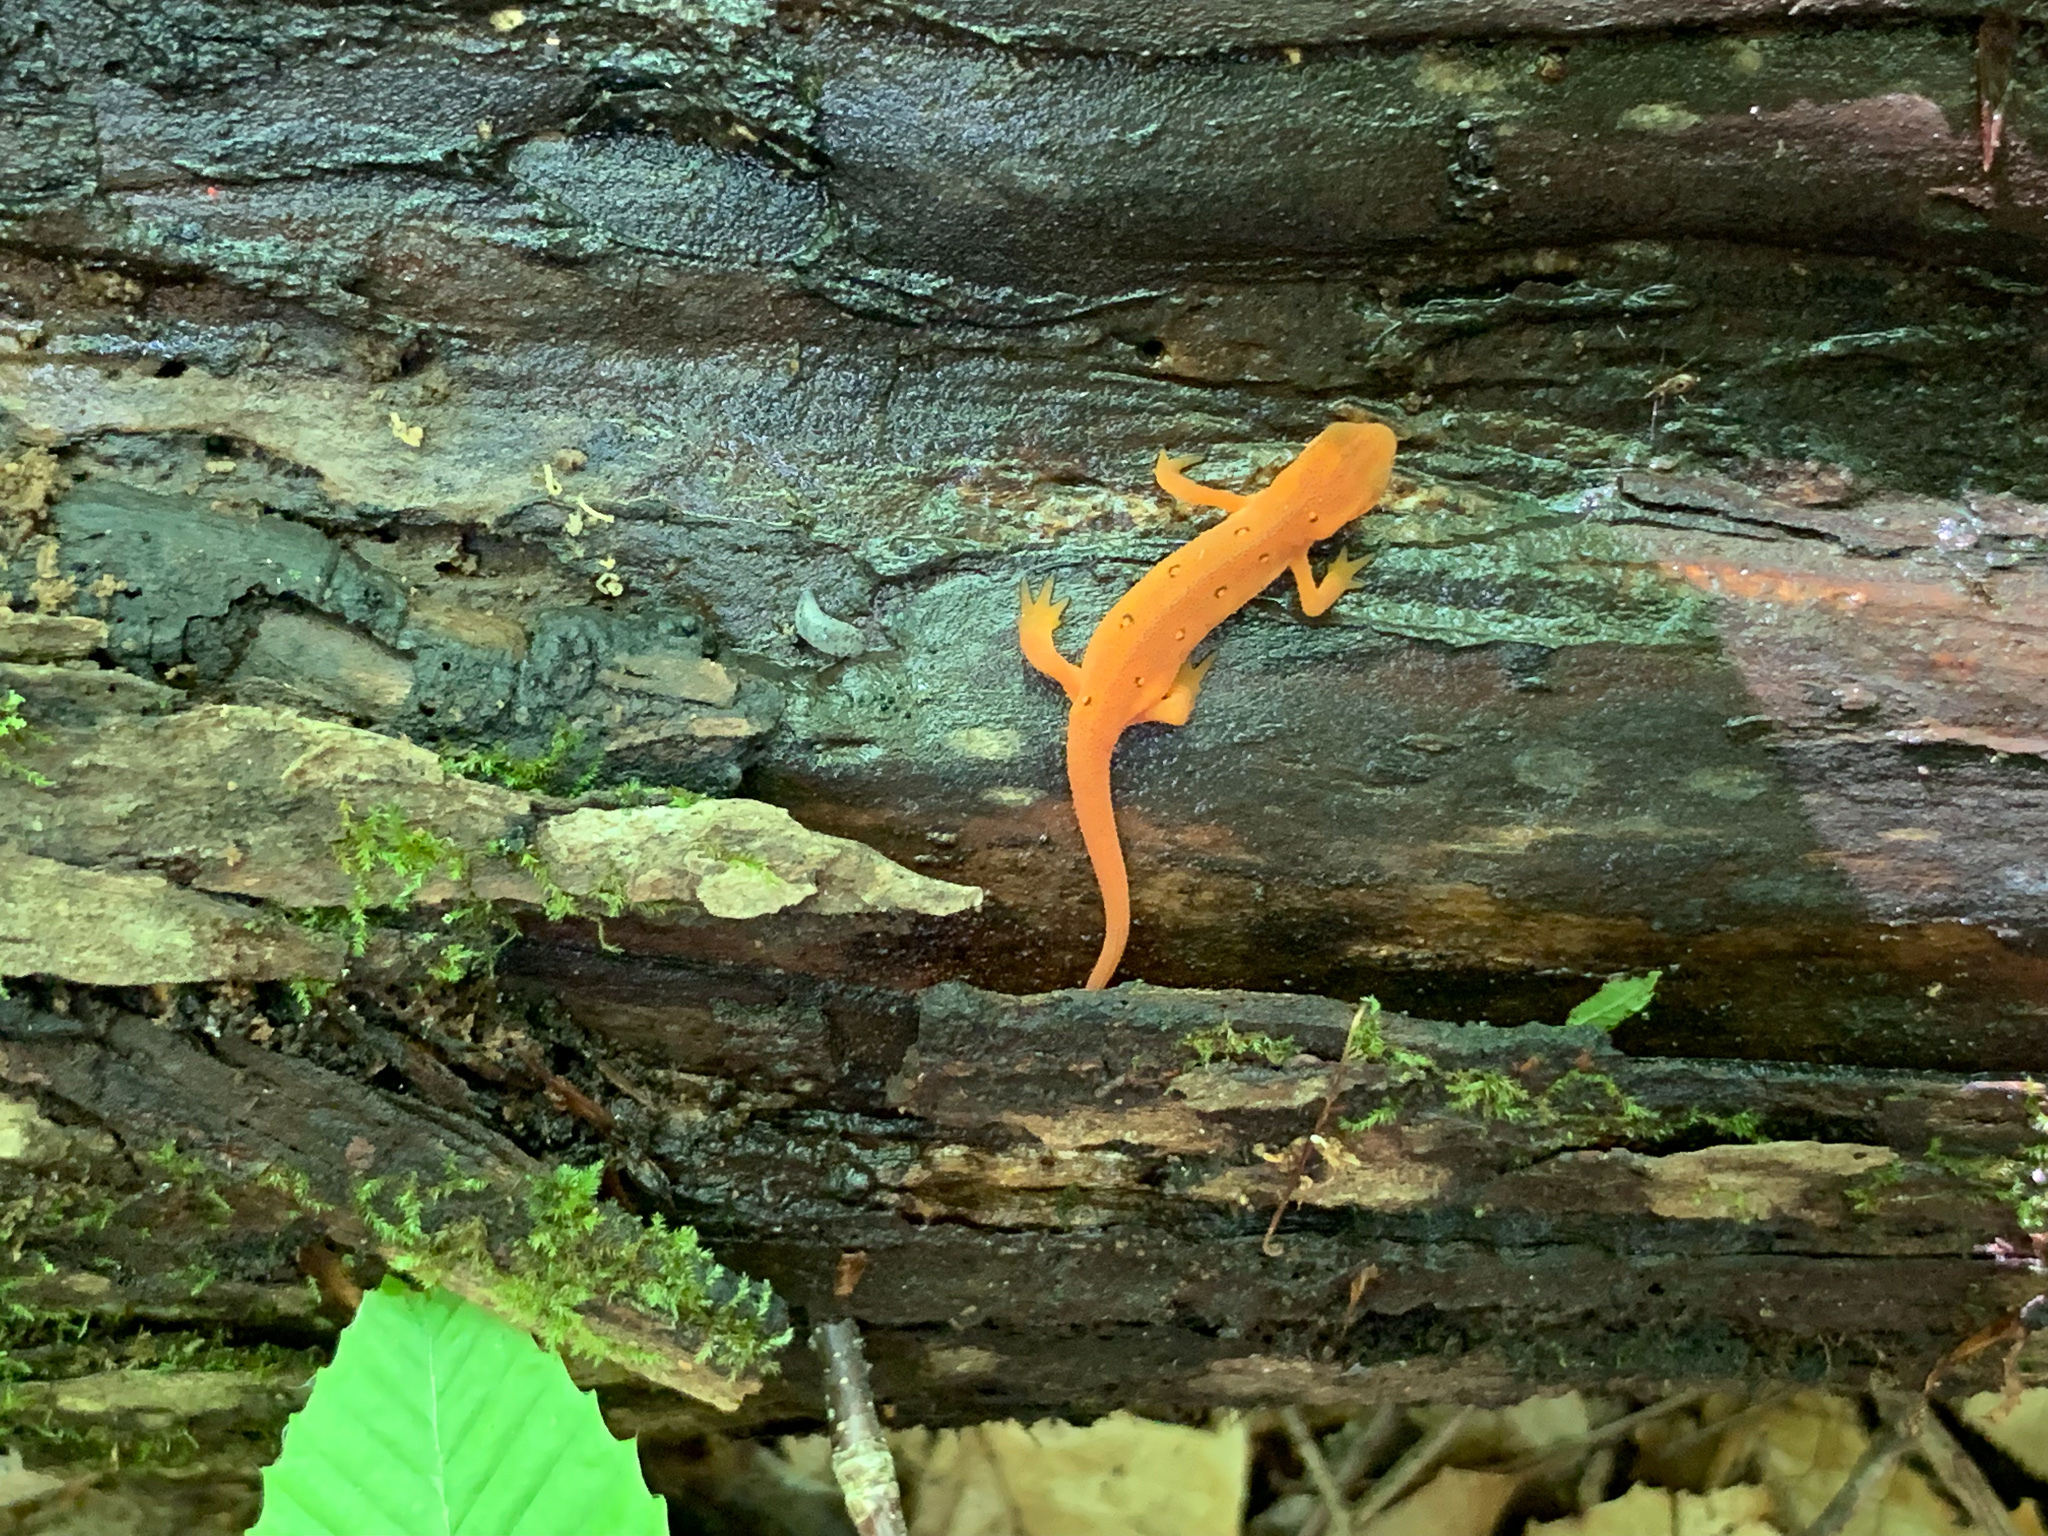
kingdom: Animalia
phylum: Chordata
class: Amphibia
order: Caudata
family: Salamandridae
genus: Notophthalmus
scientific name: Notophthalmus viridescens
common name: Eastern newt
